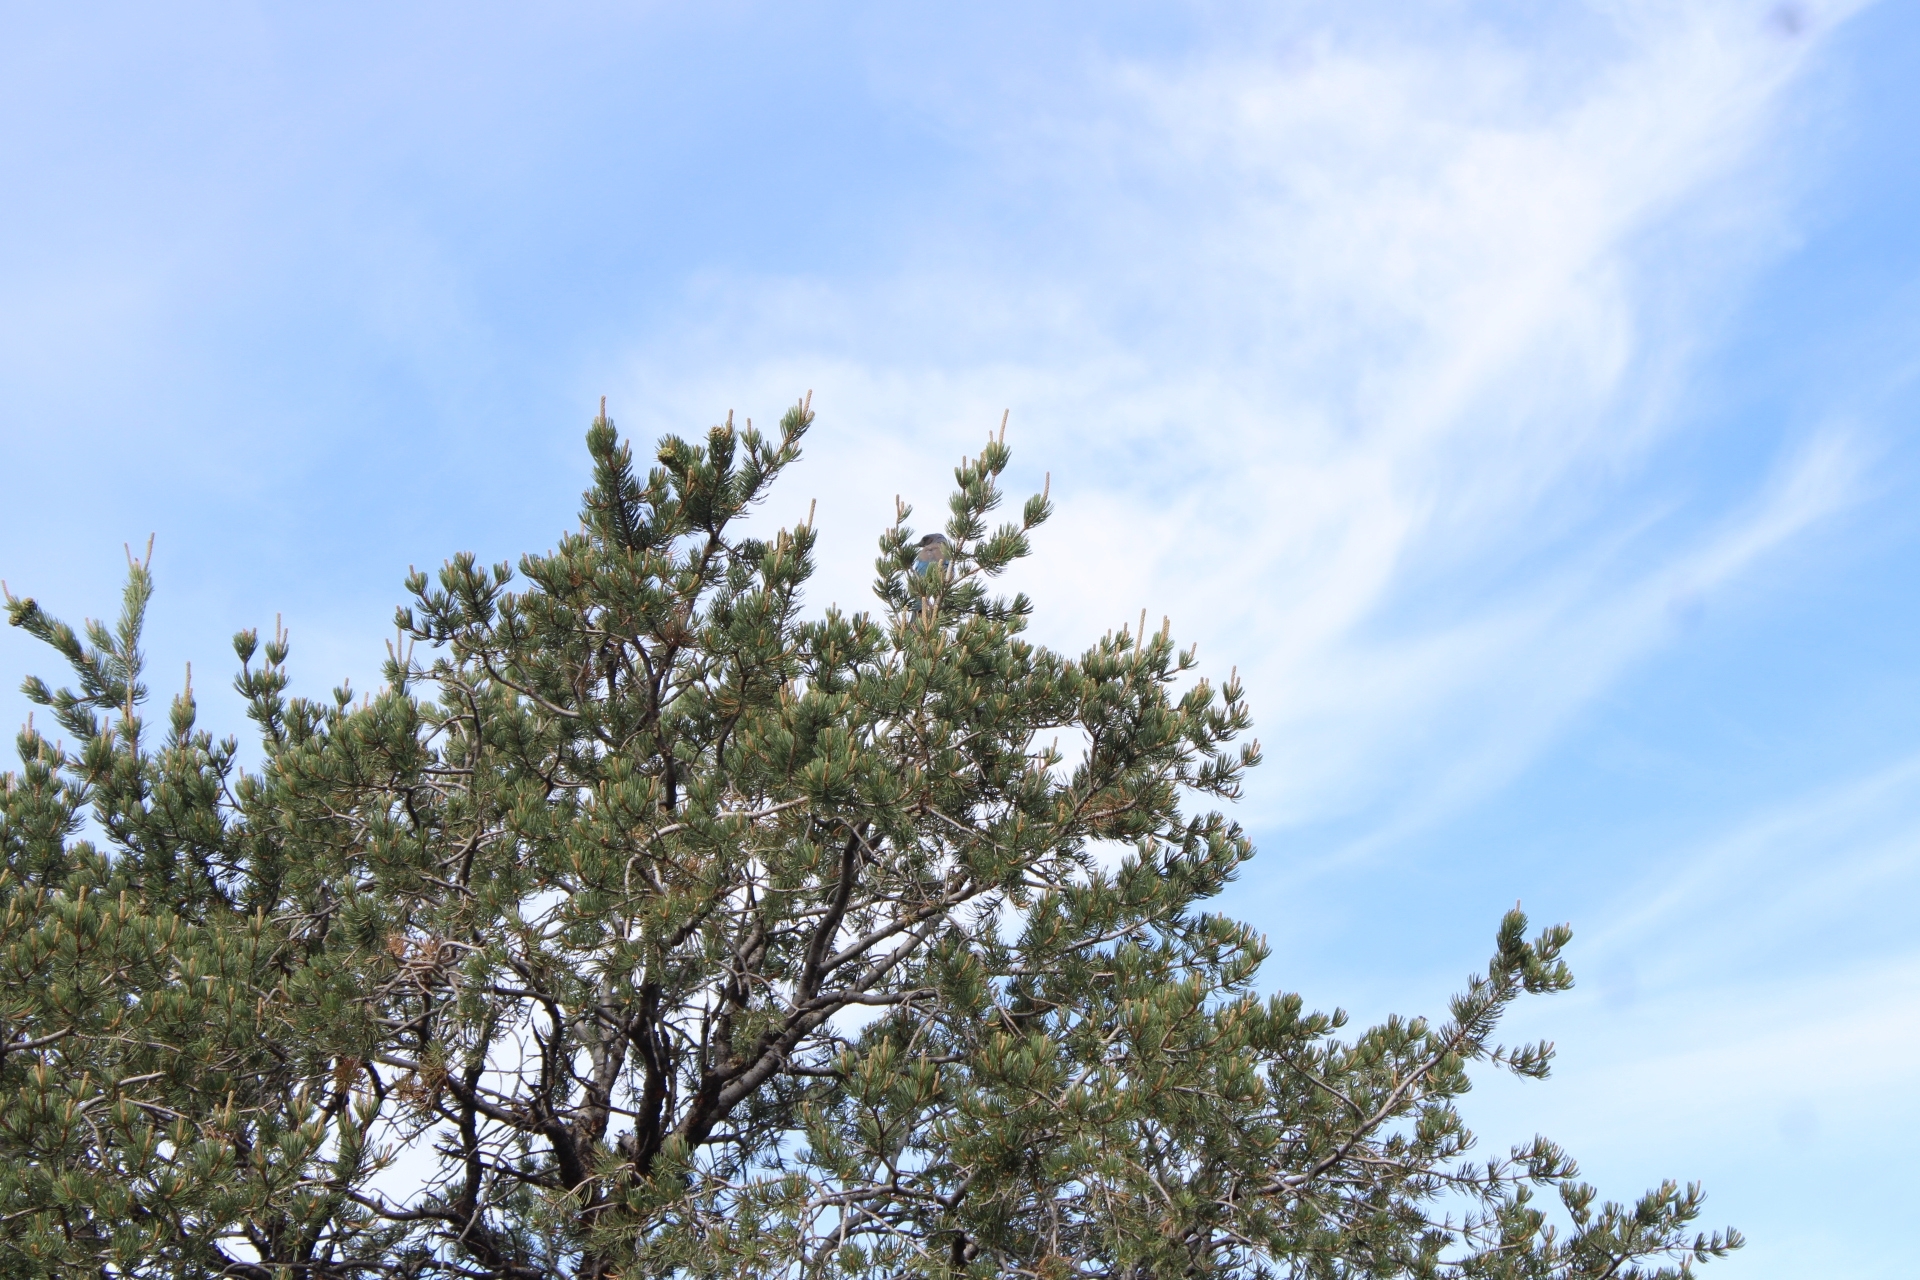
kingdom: Animalia
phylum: Chordata
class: Aves
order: Passeriformes
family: Corvidae
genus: Aphelocoma
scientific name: Aphelocoma woodhouseii
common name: Woodhouse's scrub-jay
